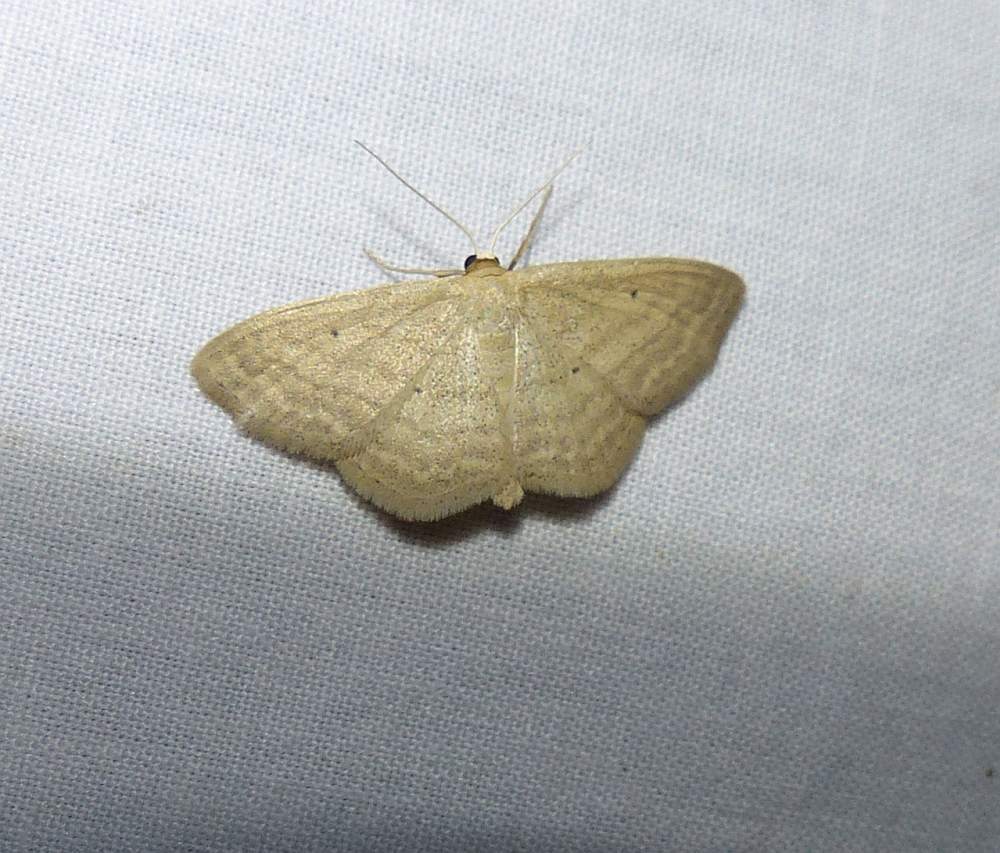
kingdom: Animalia
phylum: Arthropoda
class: Insecta
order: Lepidoptera
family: Geometridae
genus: Scopula
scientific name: Scopula inductata
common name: Soft-lined wave
